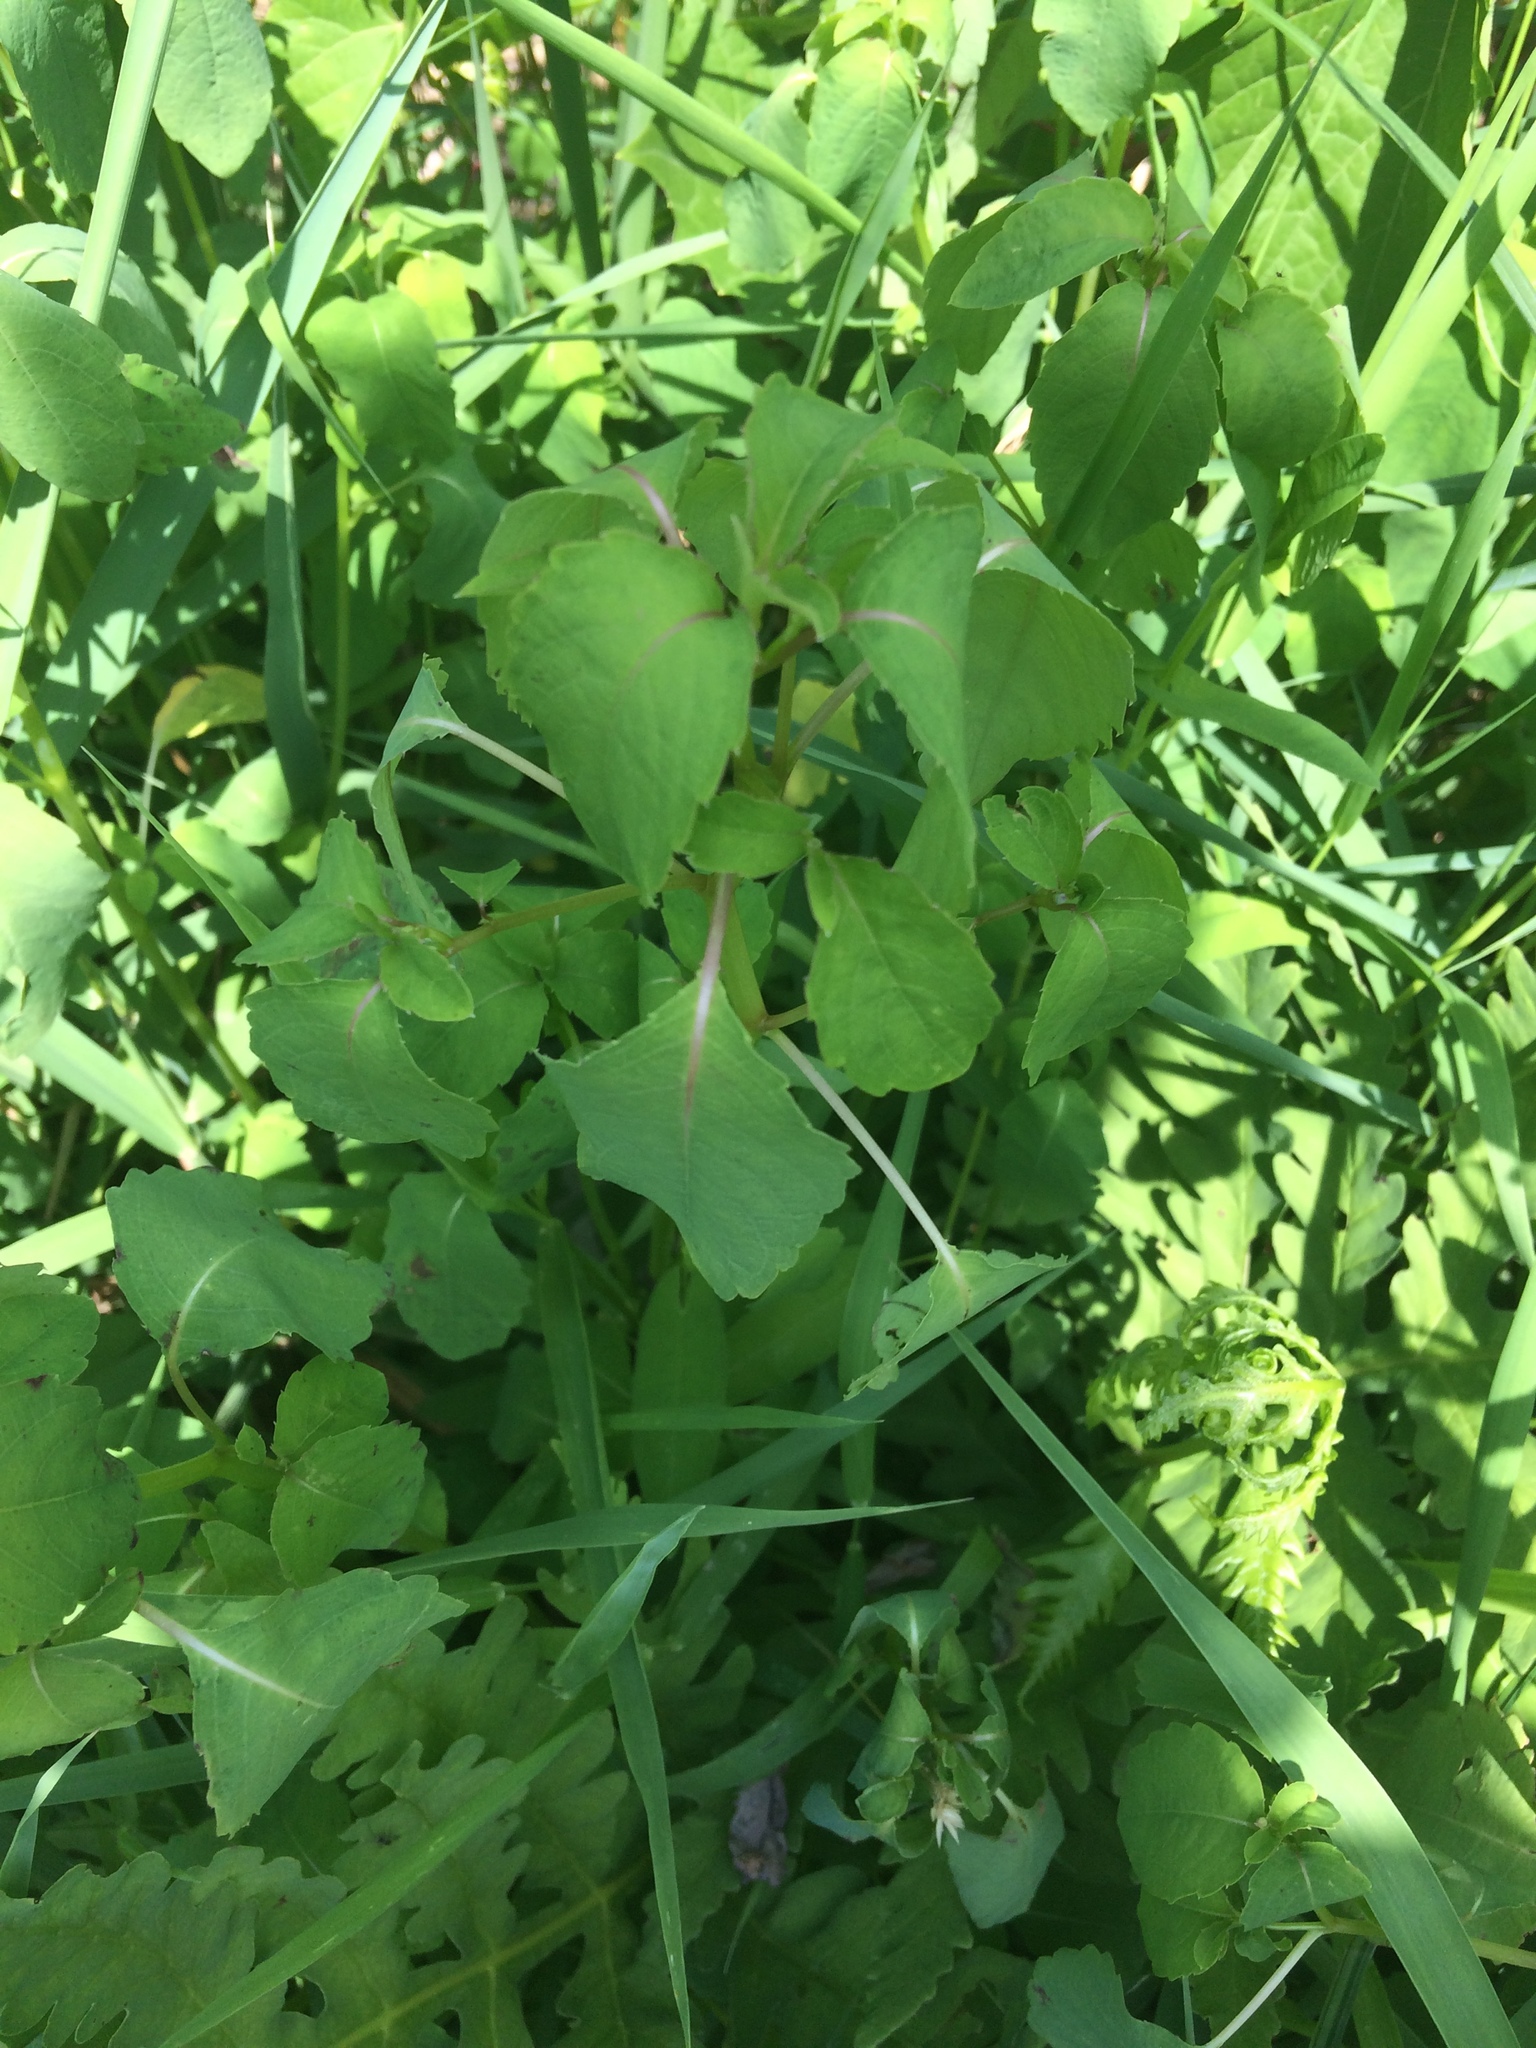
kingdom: Plantae
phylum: Tracheophyta
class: Magnoliopsida
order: Ericales
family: Balsaminaceae
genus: Impatiens
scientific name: Impatiens capensis
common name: Orange balsam
